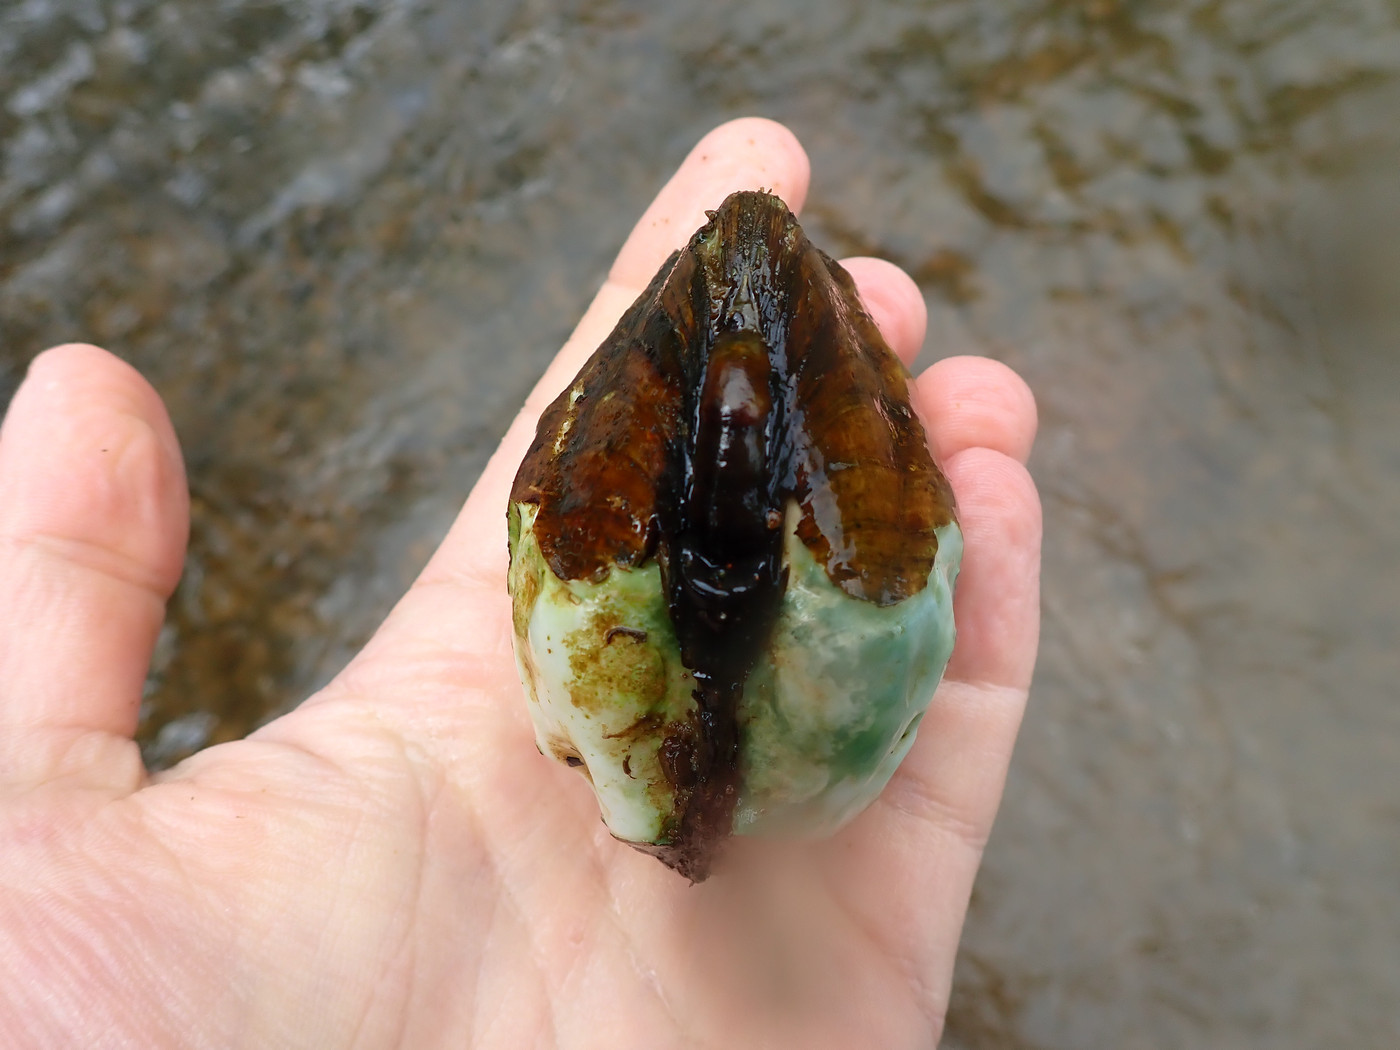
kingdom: Animalia
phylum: Mollusca
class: Bivalvia
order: Unionida
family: Unionidae
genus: Theliderma
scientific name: Theliderma metanevra
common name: Monkeyface
